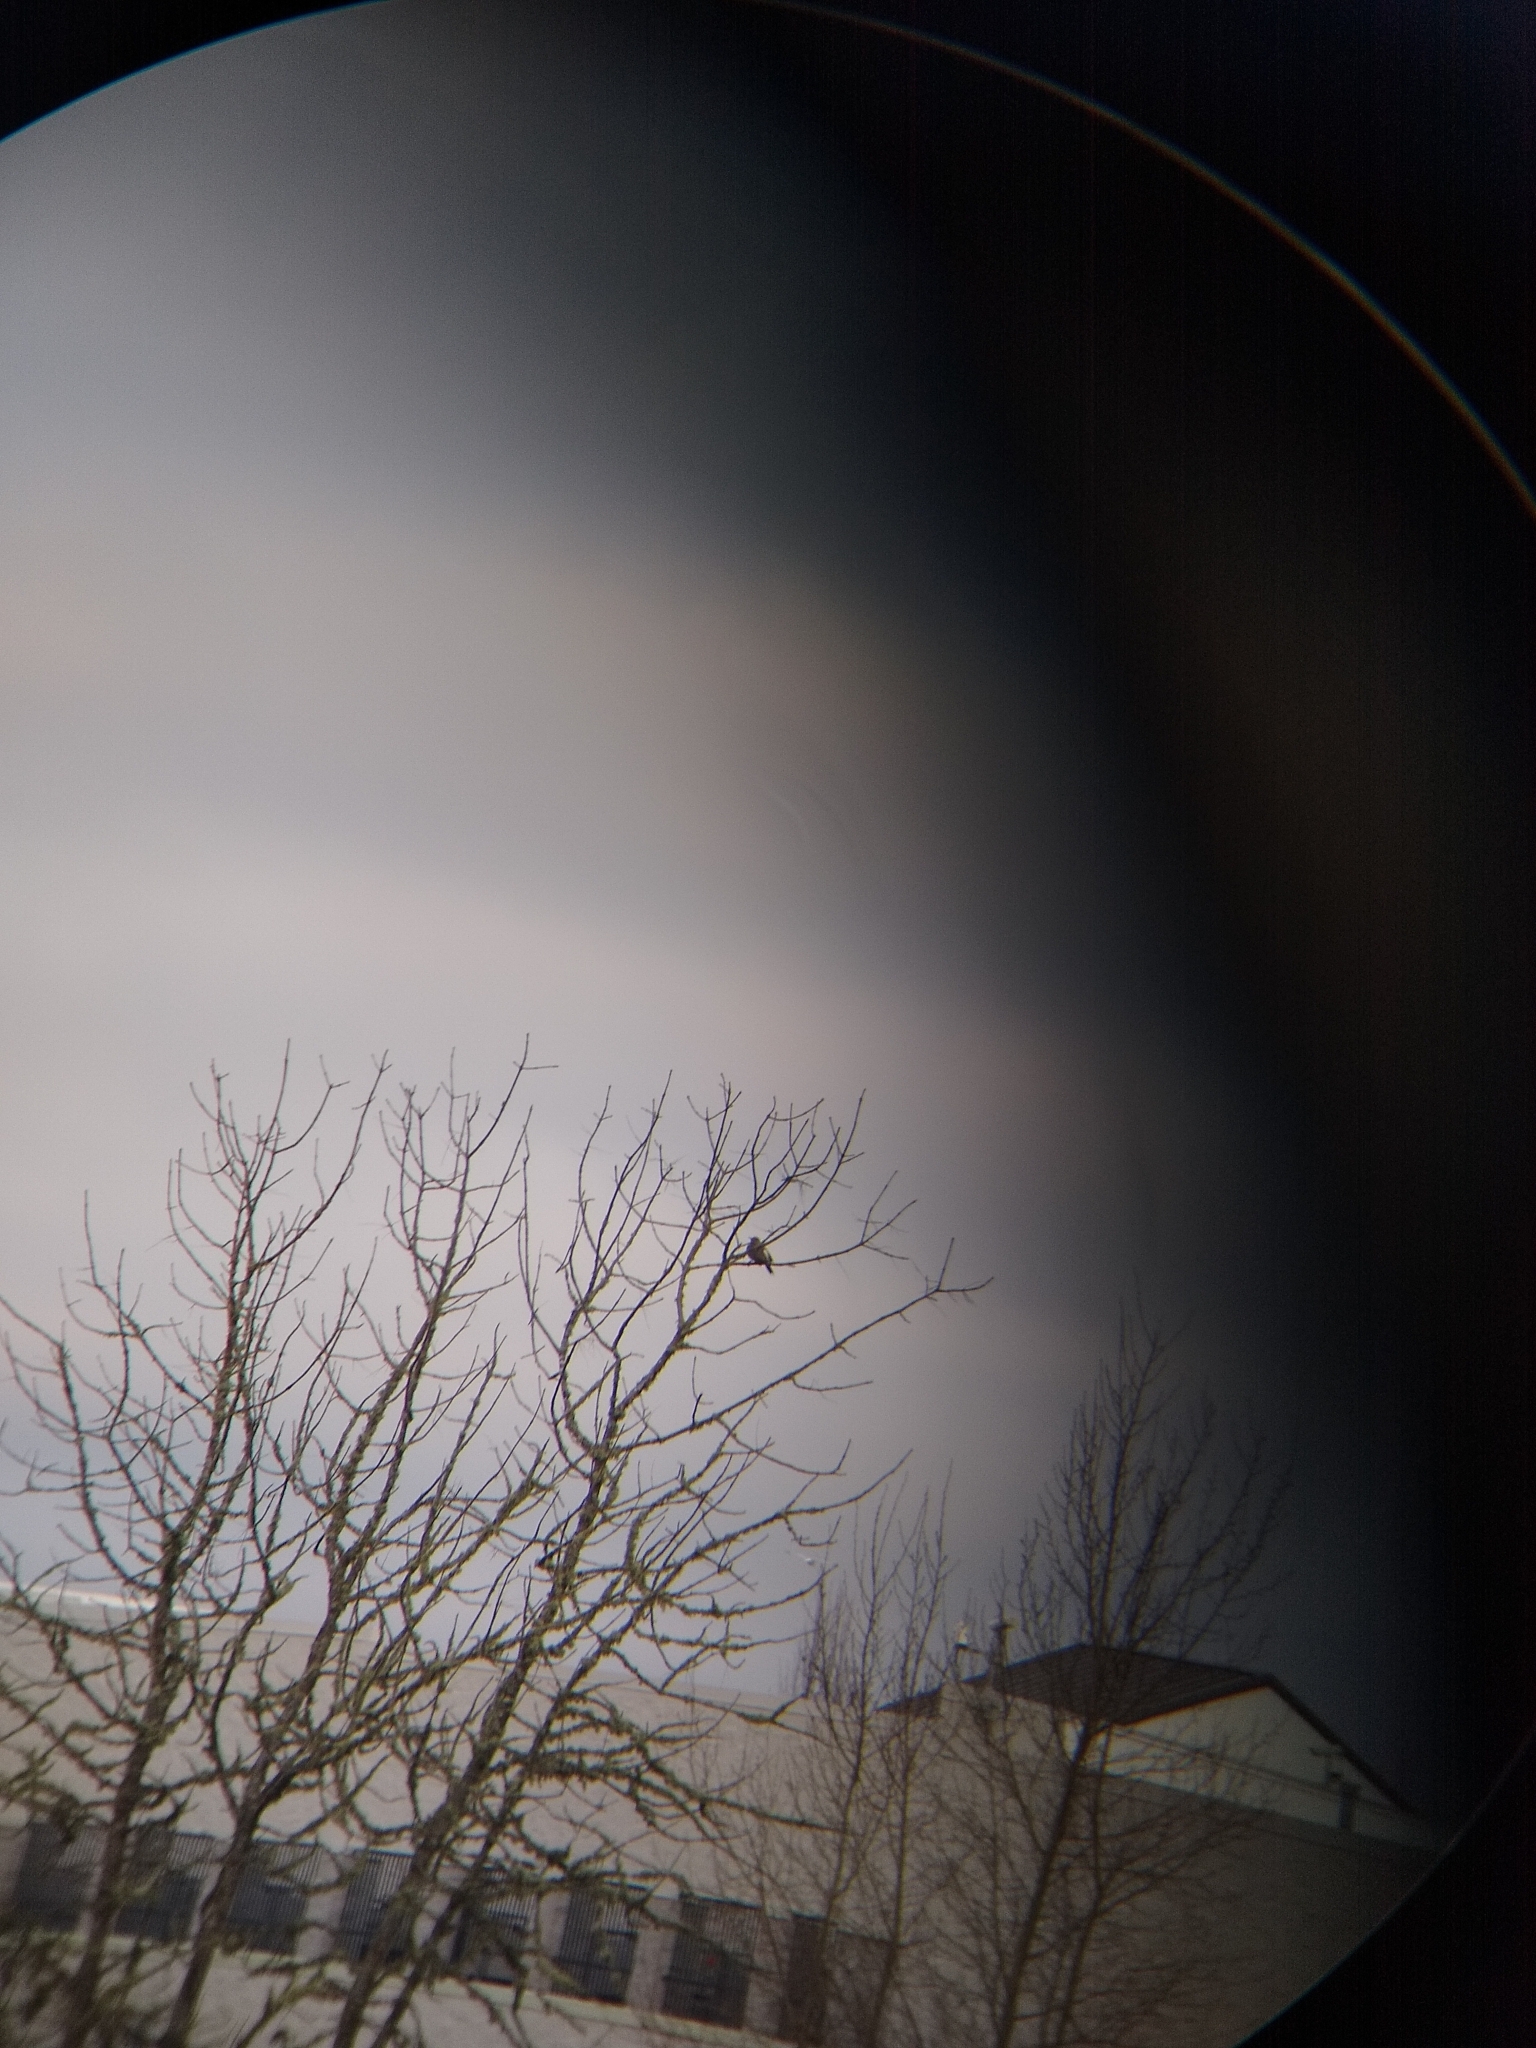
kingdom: Animalia
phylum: Chordata
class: Aves
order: Piciformes
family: Picidae
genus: Colaptes
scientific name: Colaptes auratus
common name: Northern flicker
